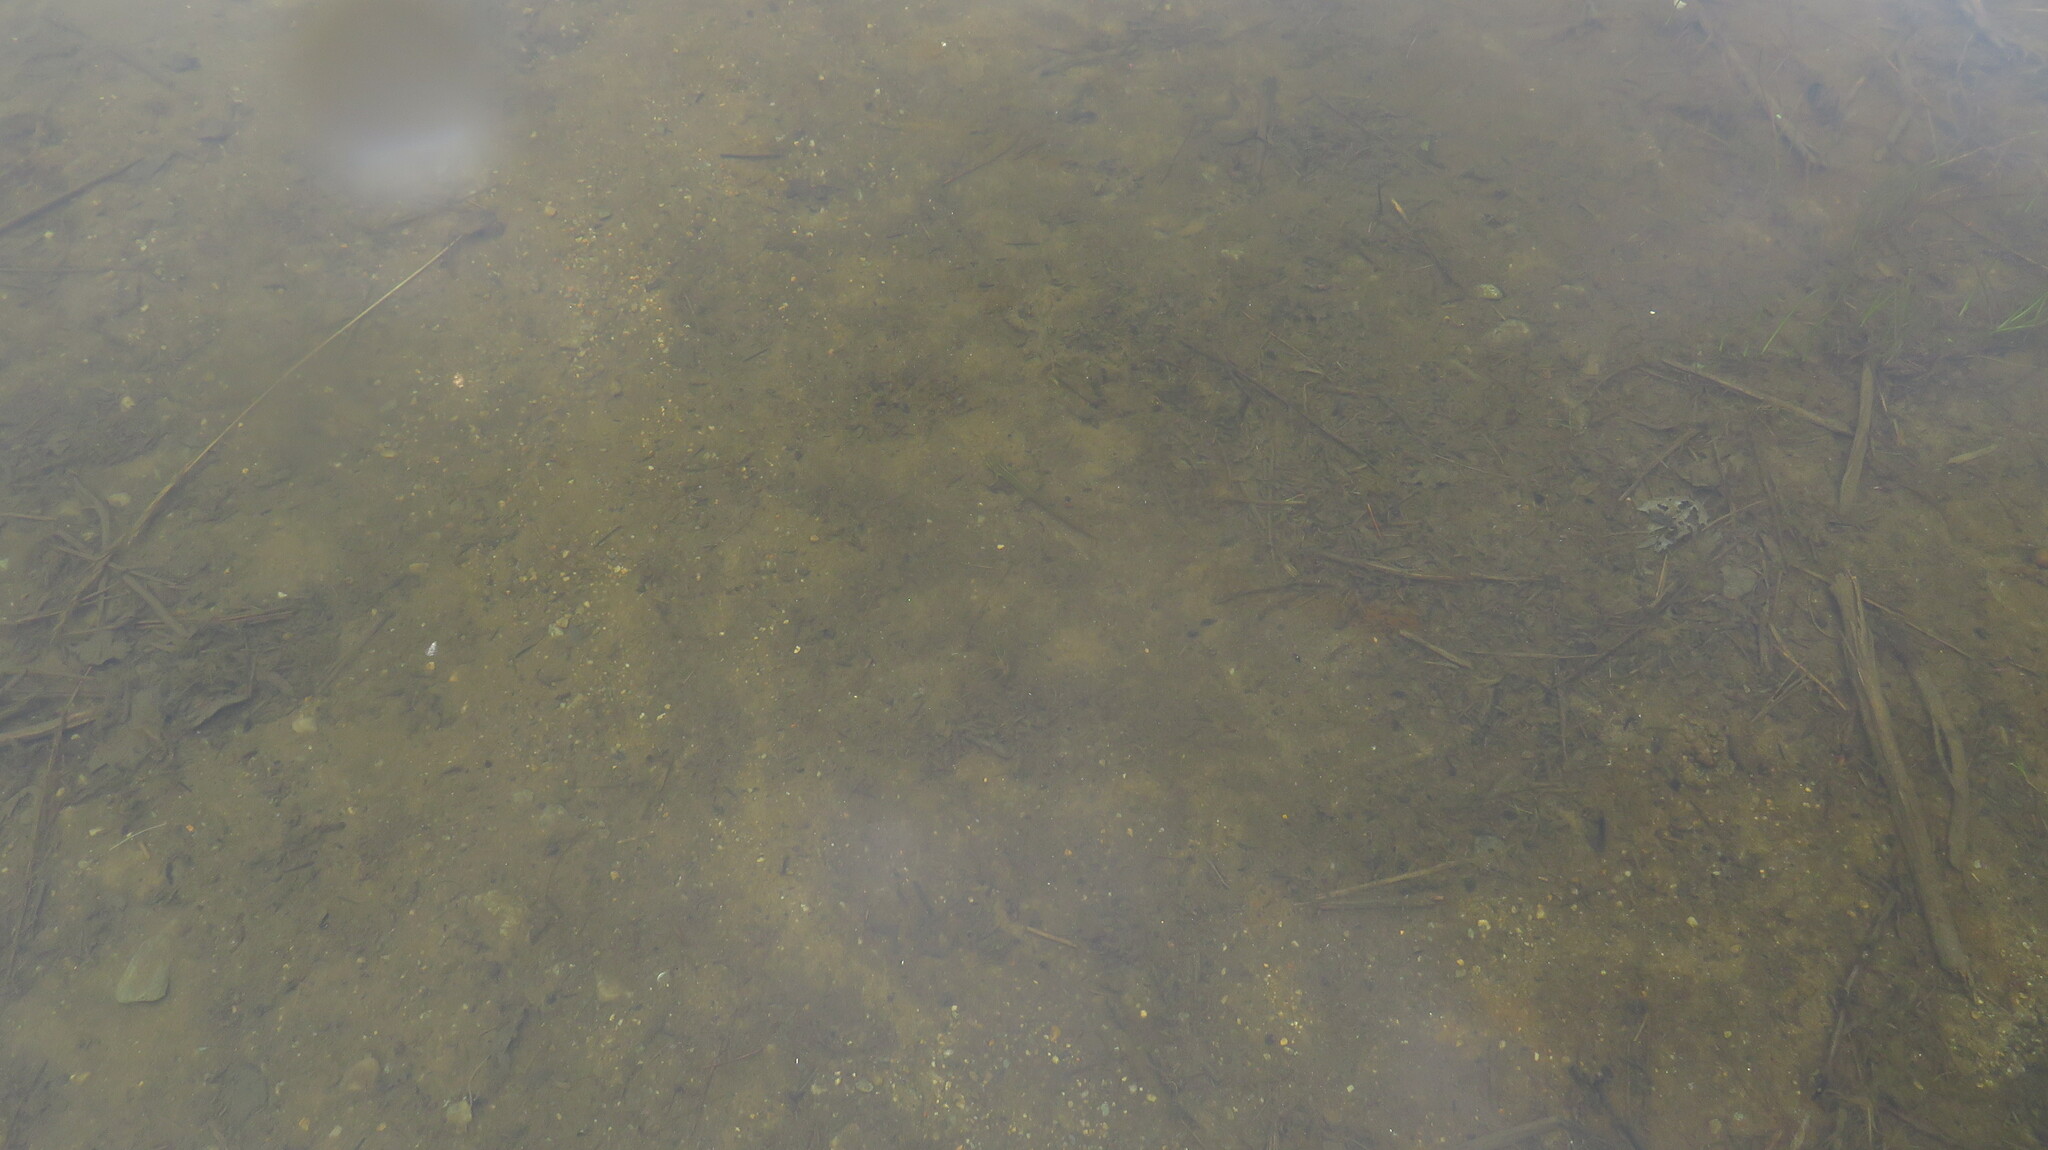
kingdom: Animalia
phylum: Chordata
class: Amphibia
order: Caudata
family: Salamandridae
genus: Notophthalmus
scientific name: Notophthalmus viridescens
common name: Eastern newt
